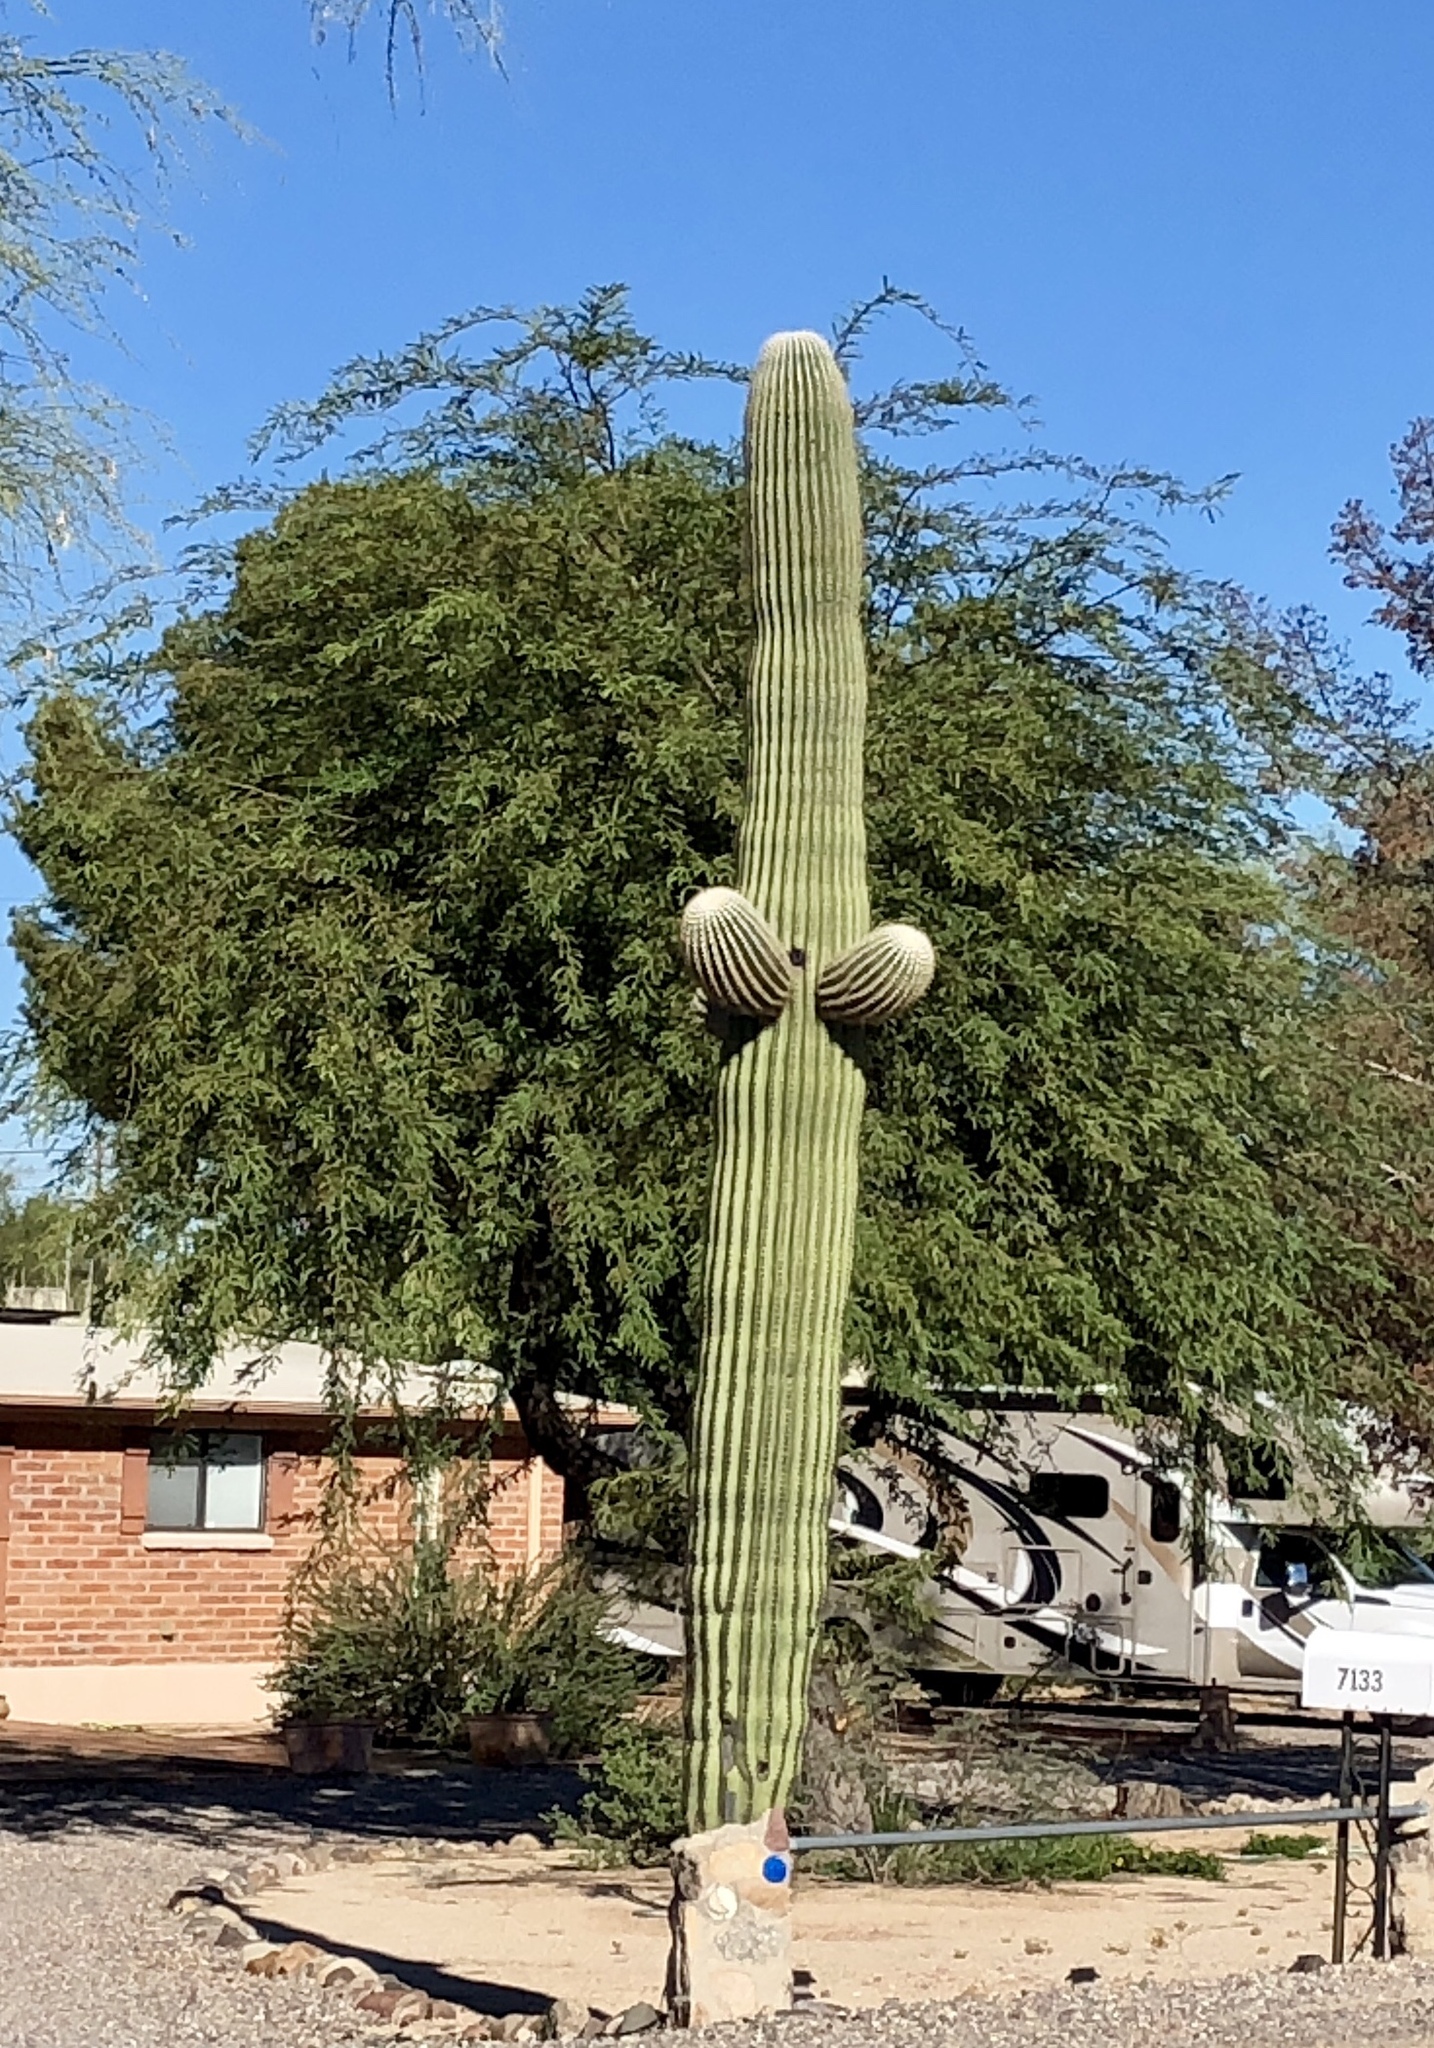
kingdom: Plantae
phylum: Tracheophyta
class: Magnoliopsida
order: Caryophyllales
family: Cactaceae
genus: Carnegiea
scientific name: Carnegiea gigantea
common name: Saguaro
